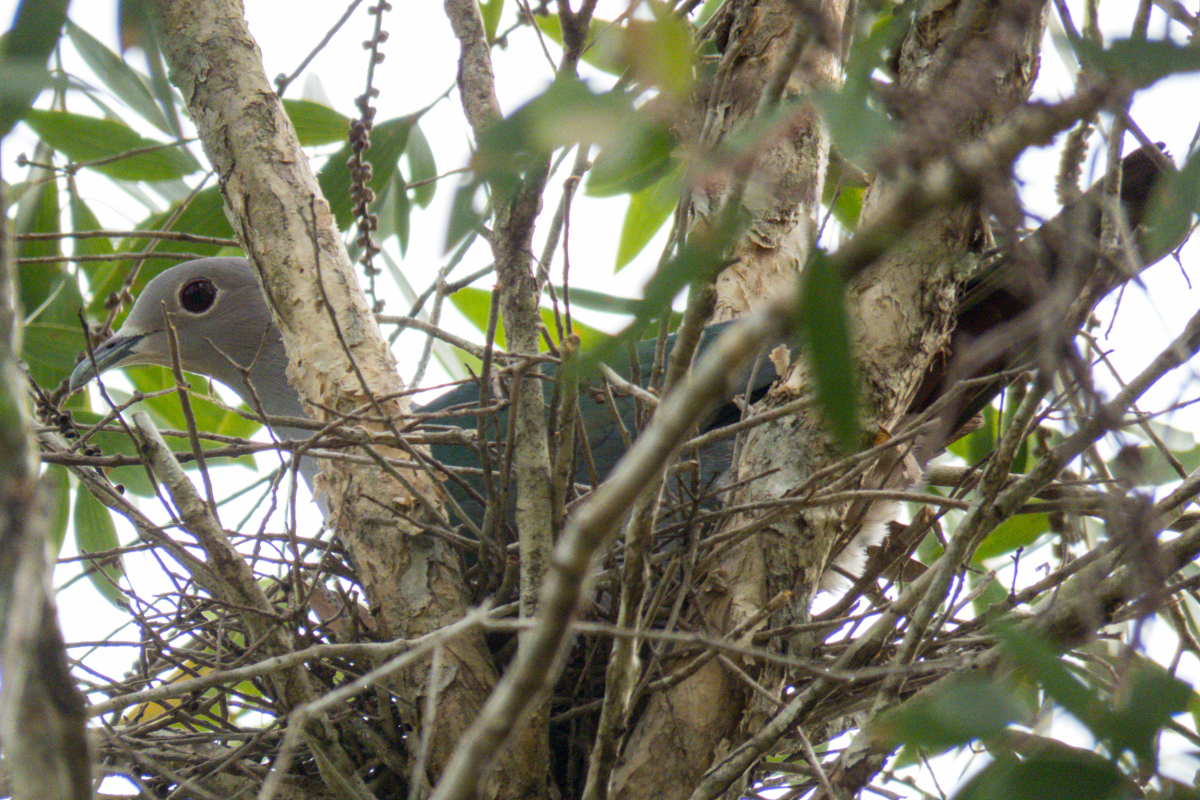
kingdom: Animalia
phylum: Chordata
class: Aves
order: Columbiformes
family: Columbidae
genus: Ducula
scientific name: Ducula aenea
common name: Green imperial pigeon
